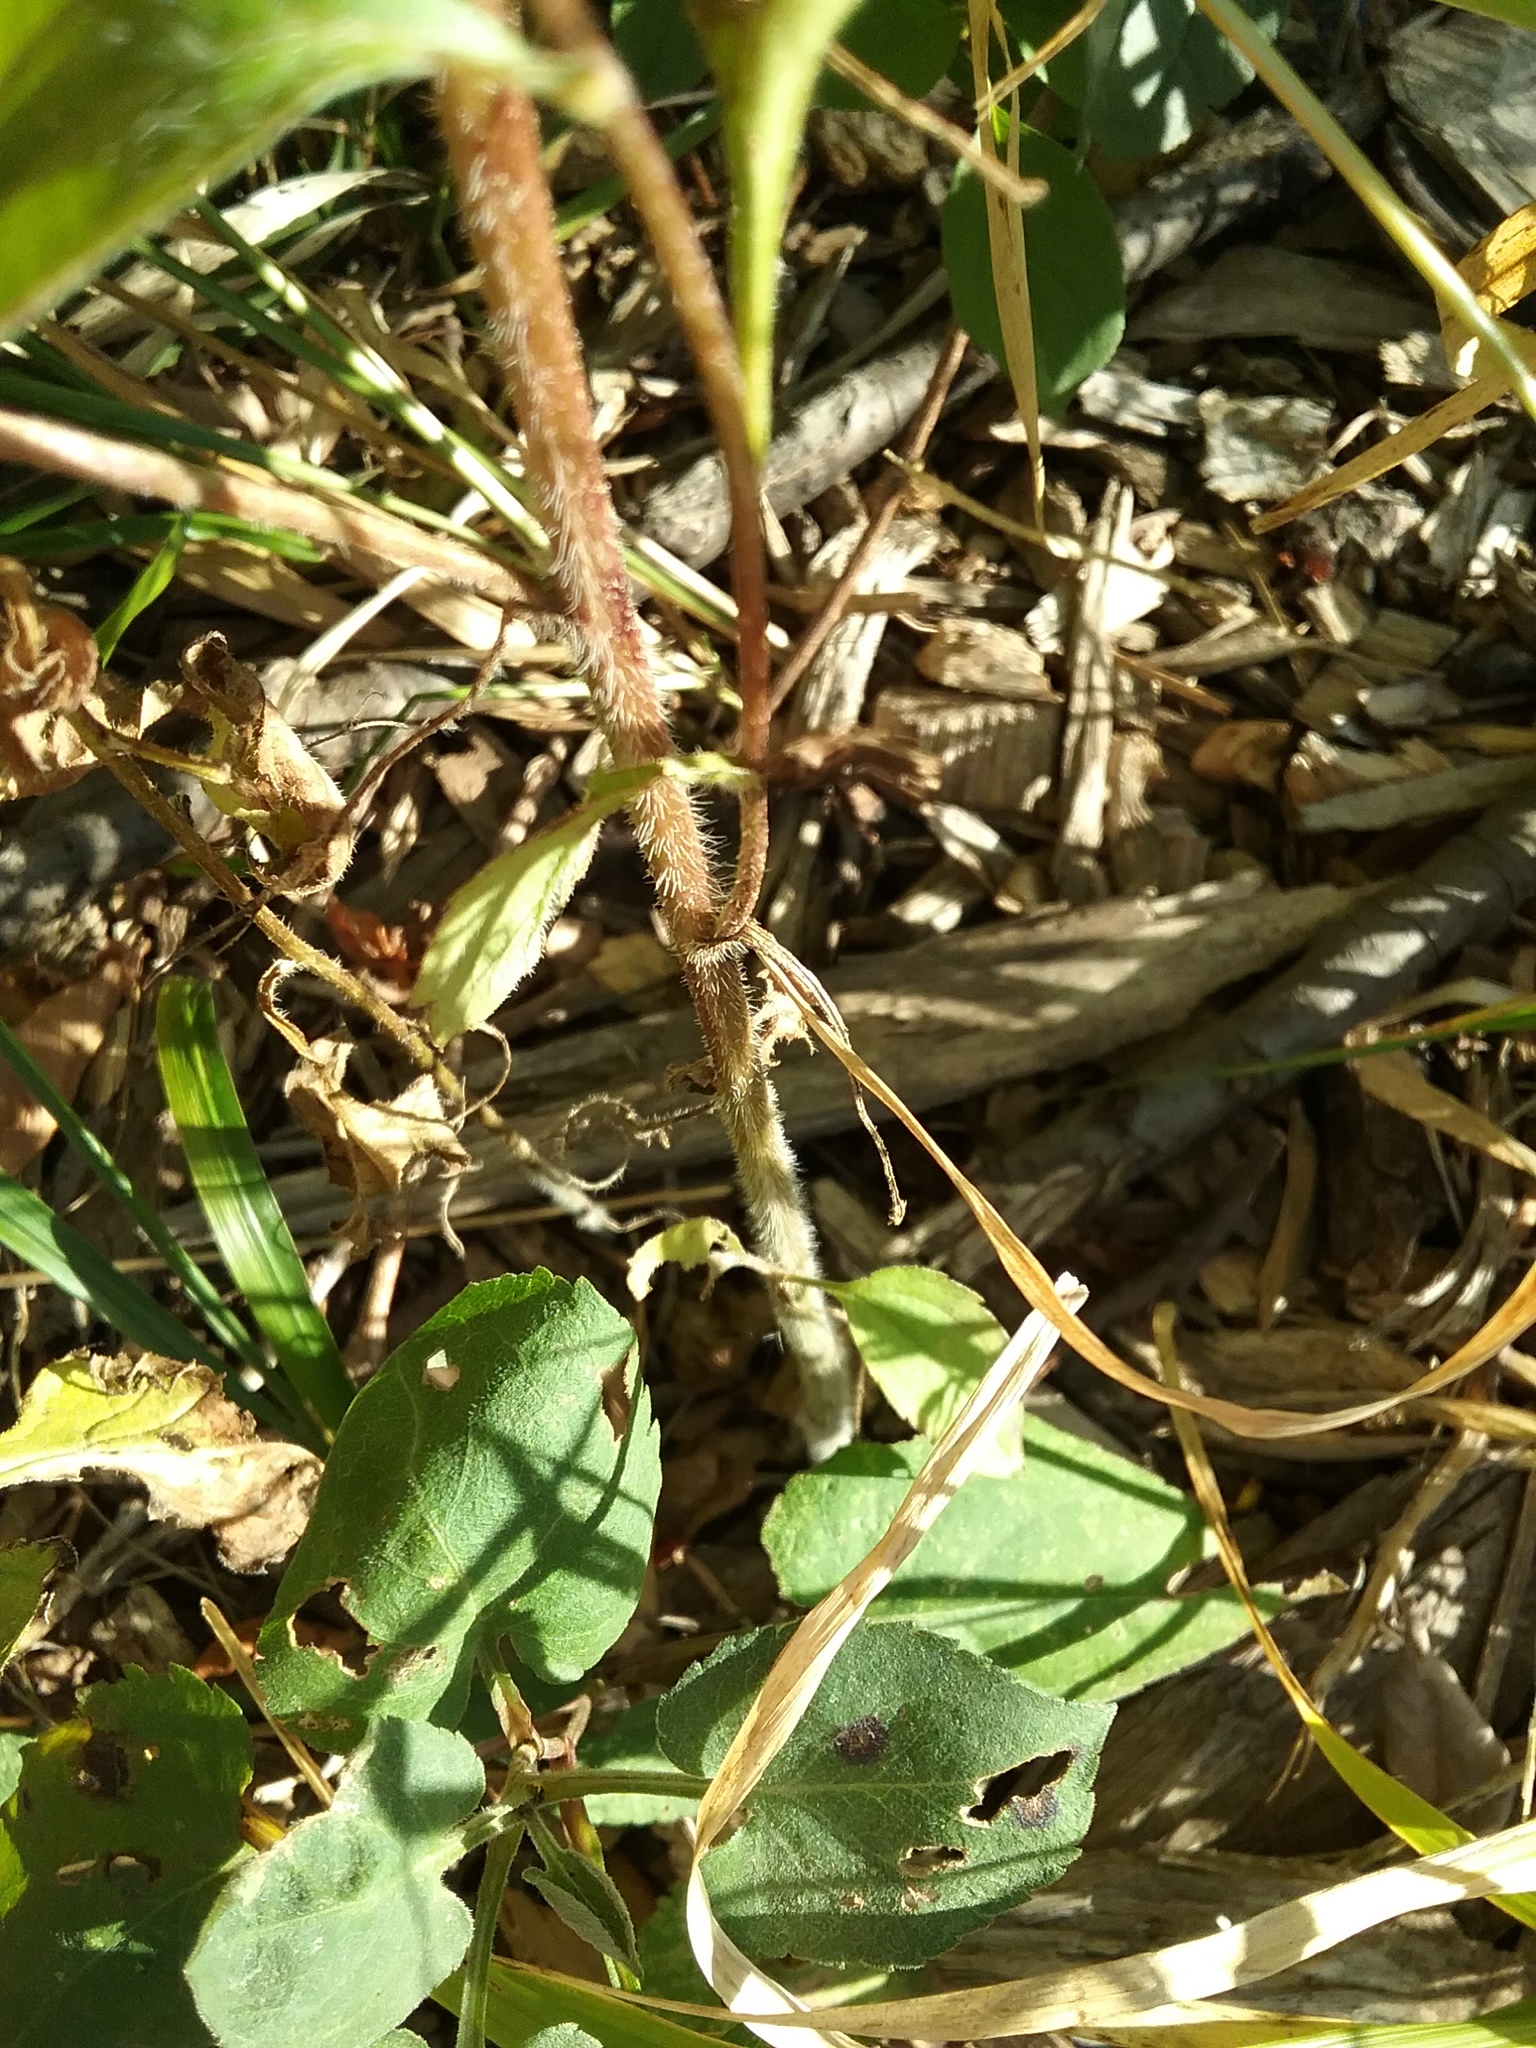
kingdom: Plantae
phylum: Tracheophyta
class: Magnoliopsida
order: Asterales
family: Asteraceae
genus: Rudbeckia
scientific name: Rudbeckia triloba
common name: Thin-leaved coneflower
